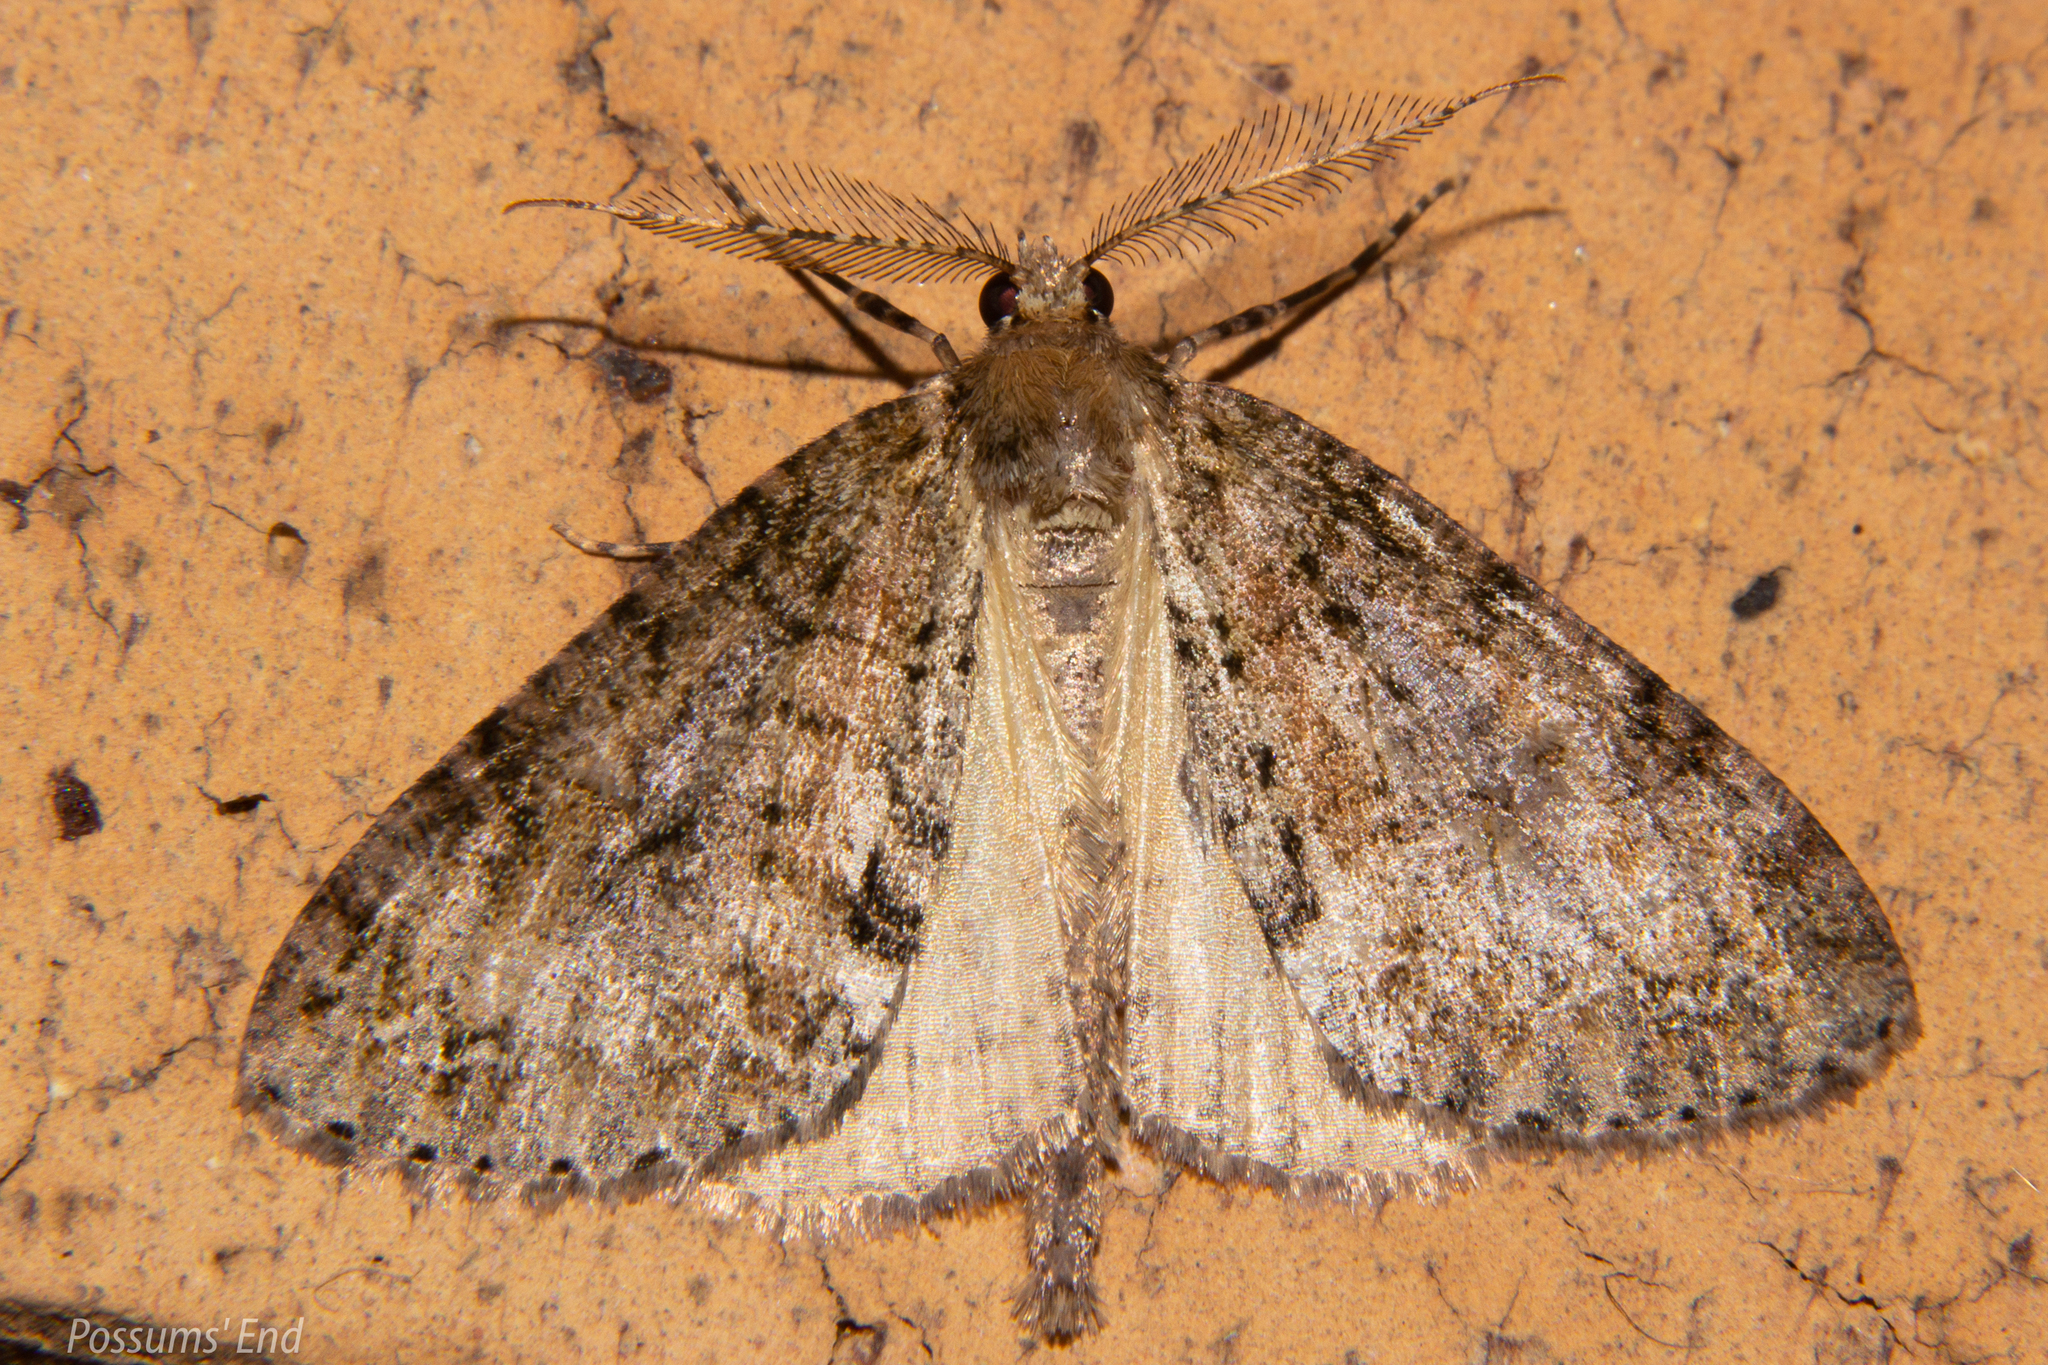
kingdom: Animalia
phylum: Arthropoda
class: Insecta
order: Lepidoptera
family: Geometridae
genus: Pseudocoremia
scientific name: Pseudocoremia suavis
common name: Common forest looper
